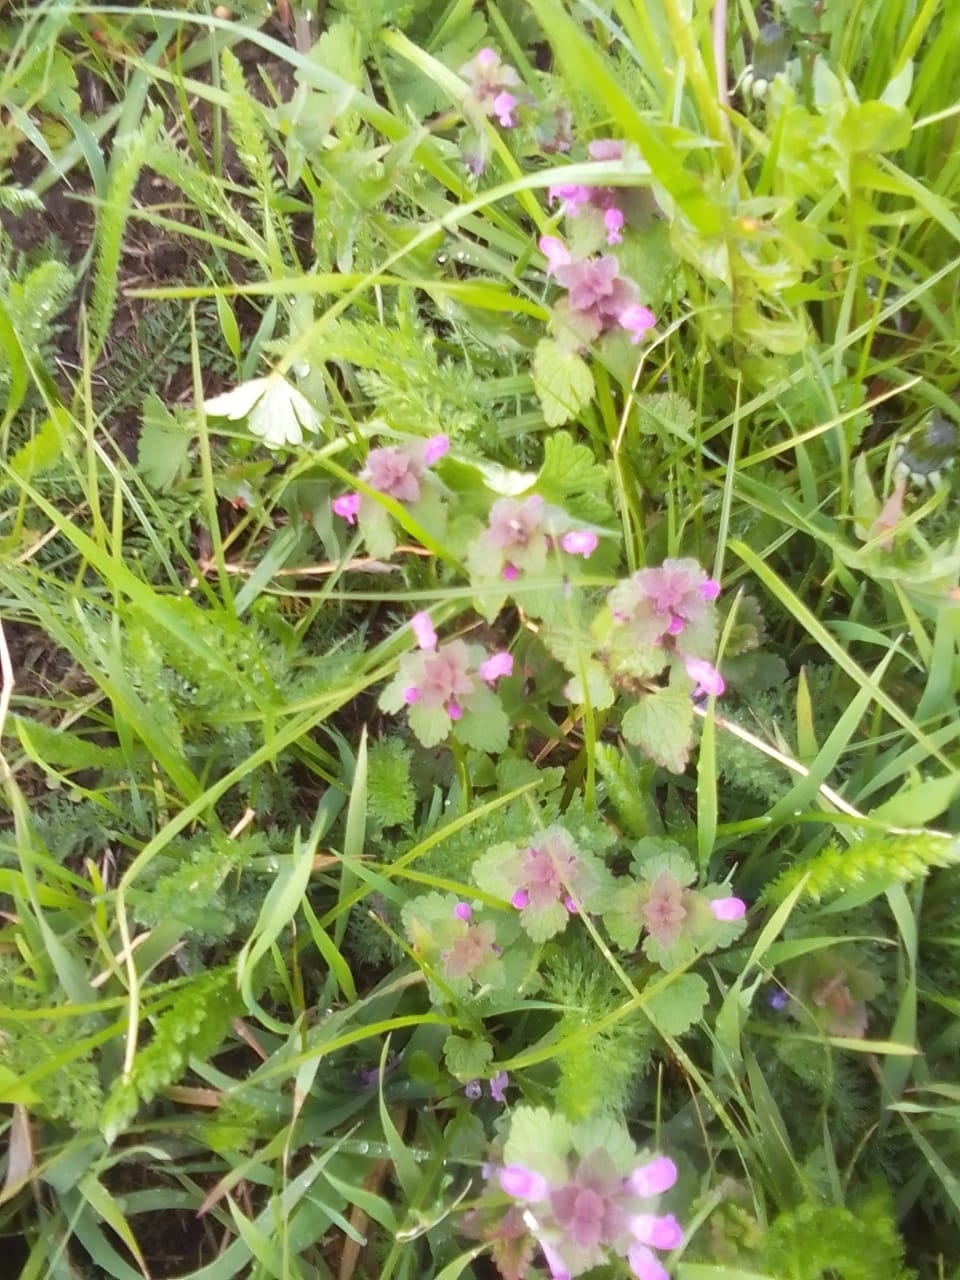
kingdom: Plantae
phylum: Tracheophyta
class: Magnoliopsida
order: Lamiales
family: Lamiaceae
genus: Lamium
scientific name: Lamium purpureum
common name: Red dead-nettle
